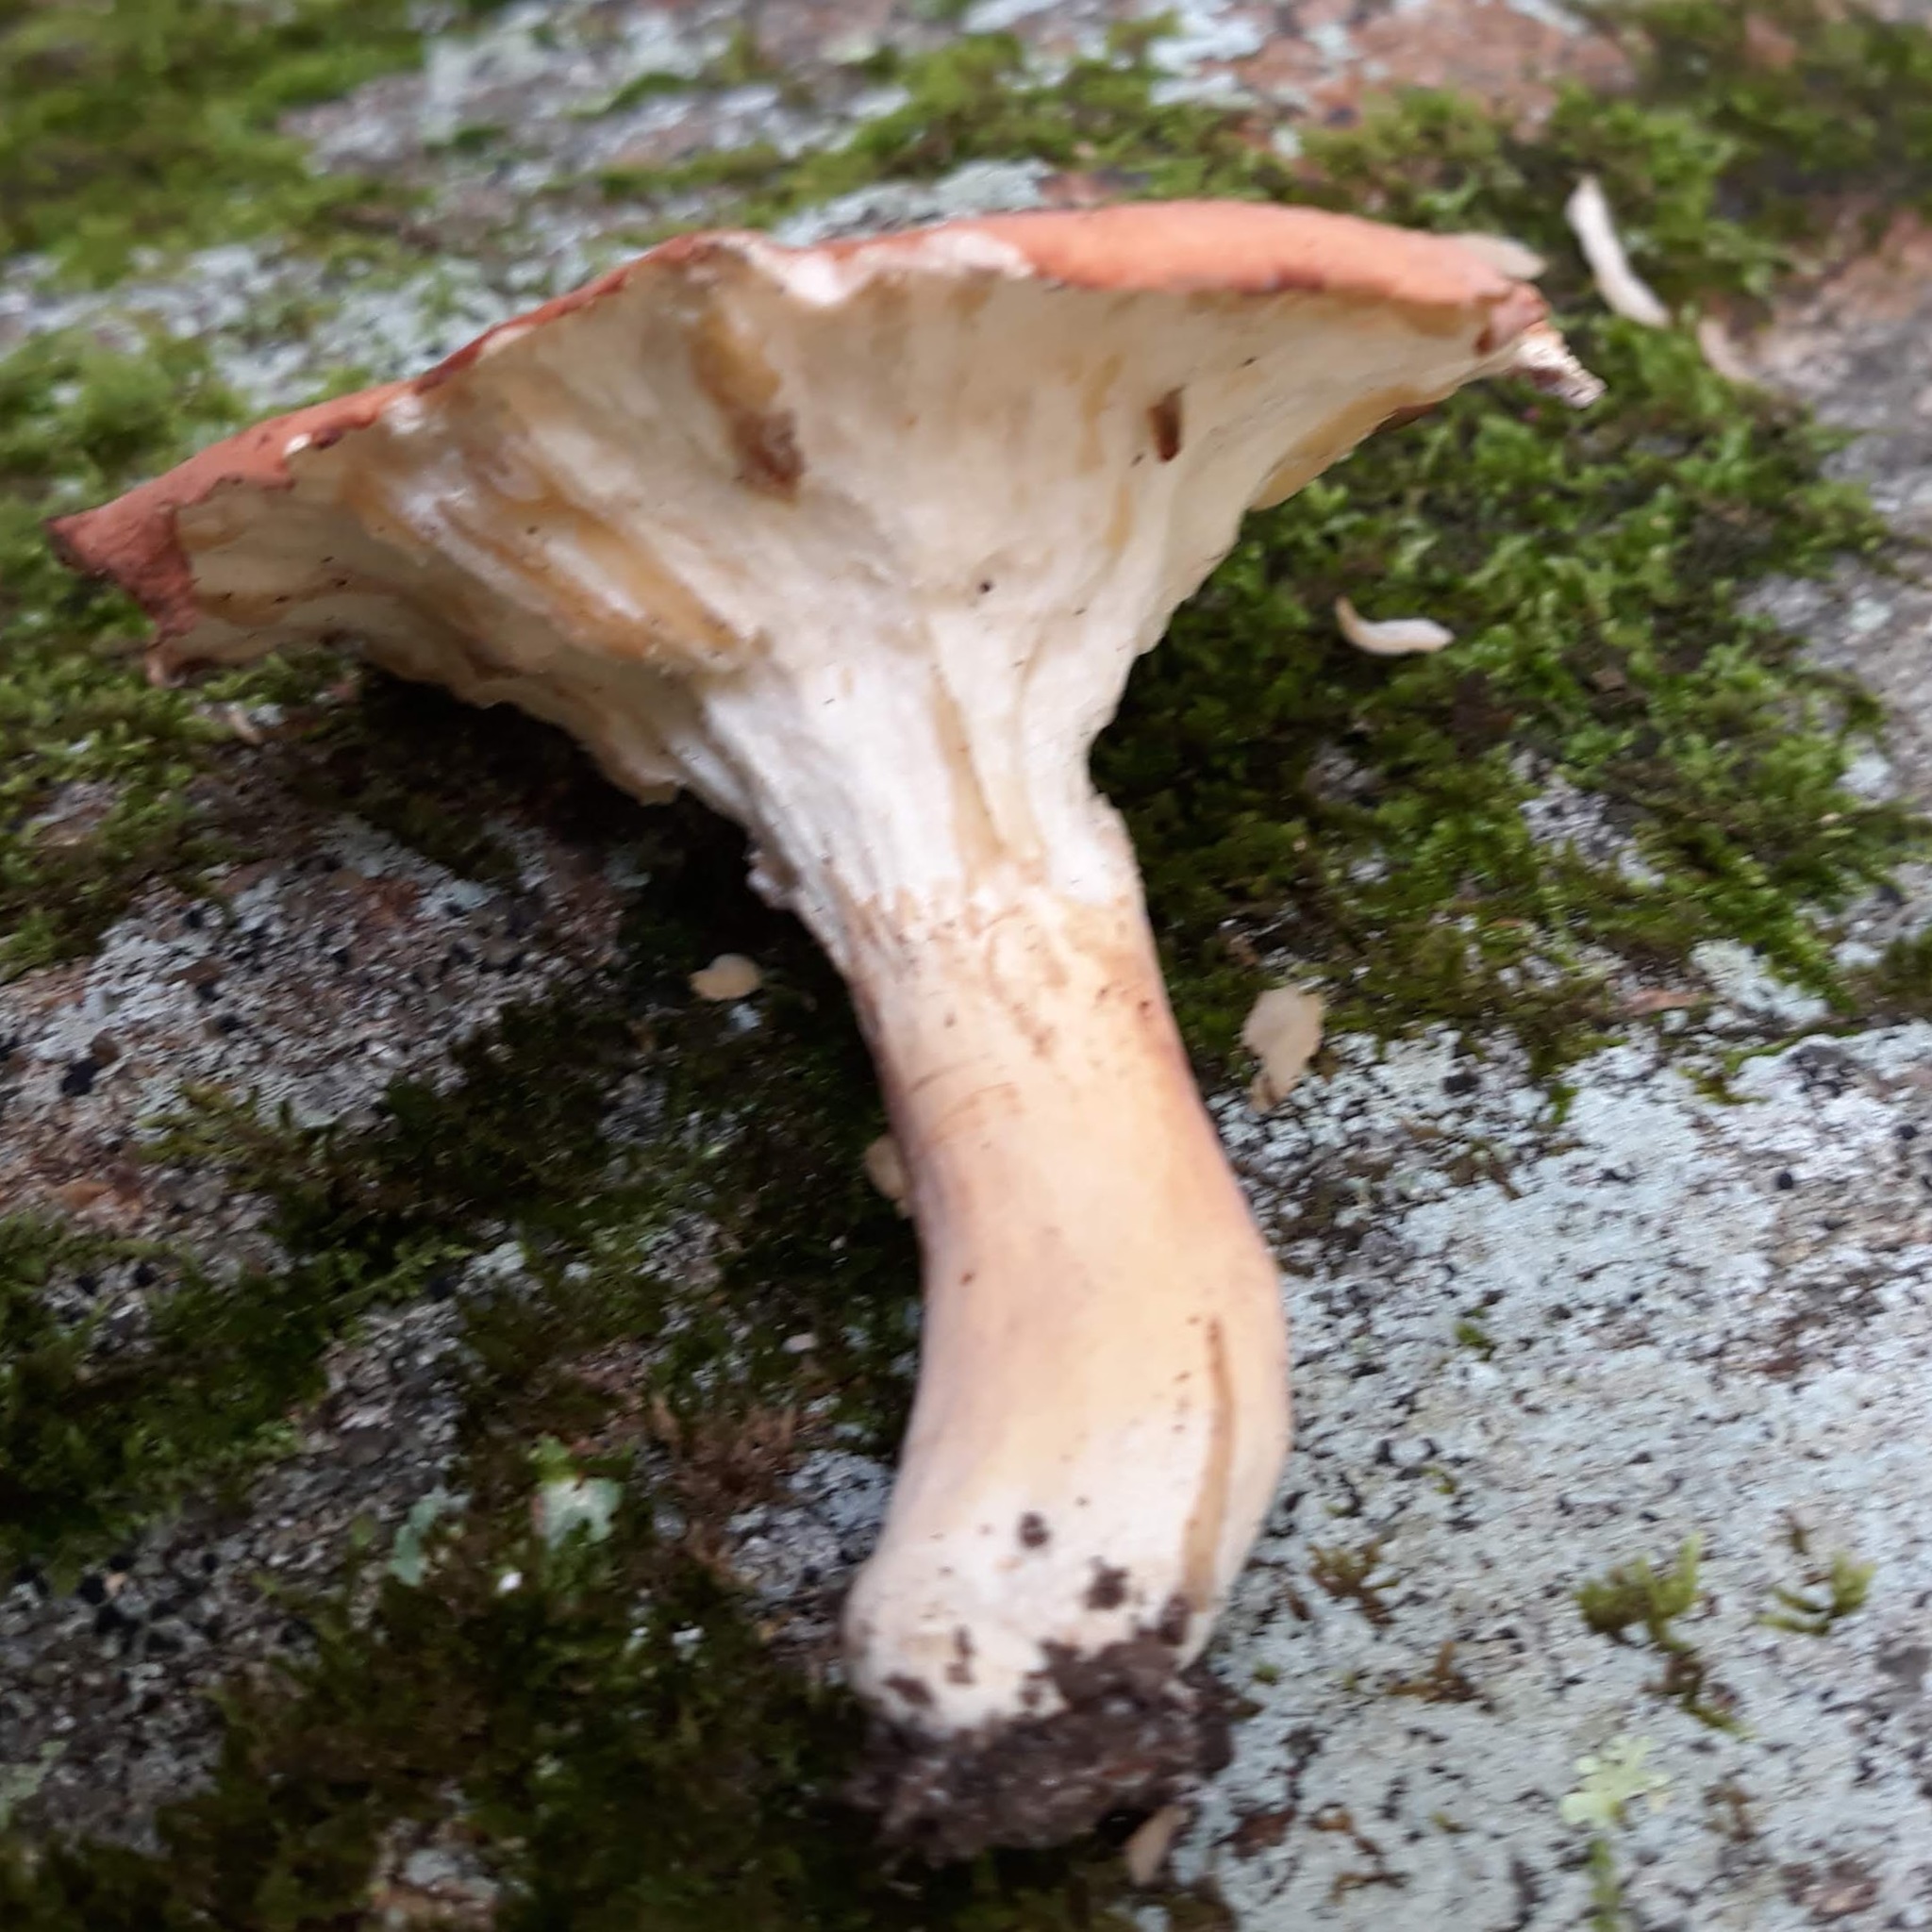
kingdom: Fungi
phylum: Basidiomycota
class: Agaricomycetes
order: Russulales
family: Russulaceae
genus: Russula
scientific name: Russula
